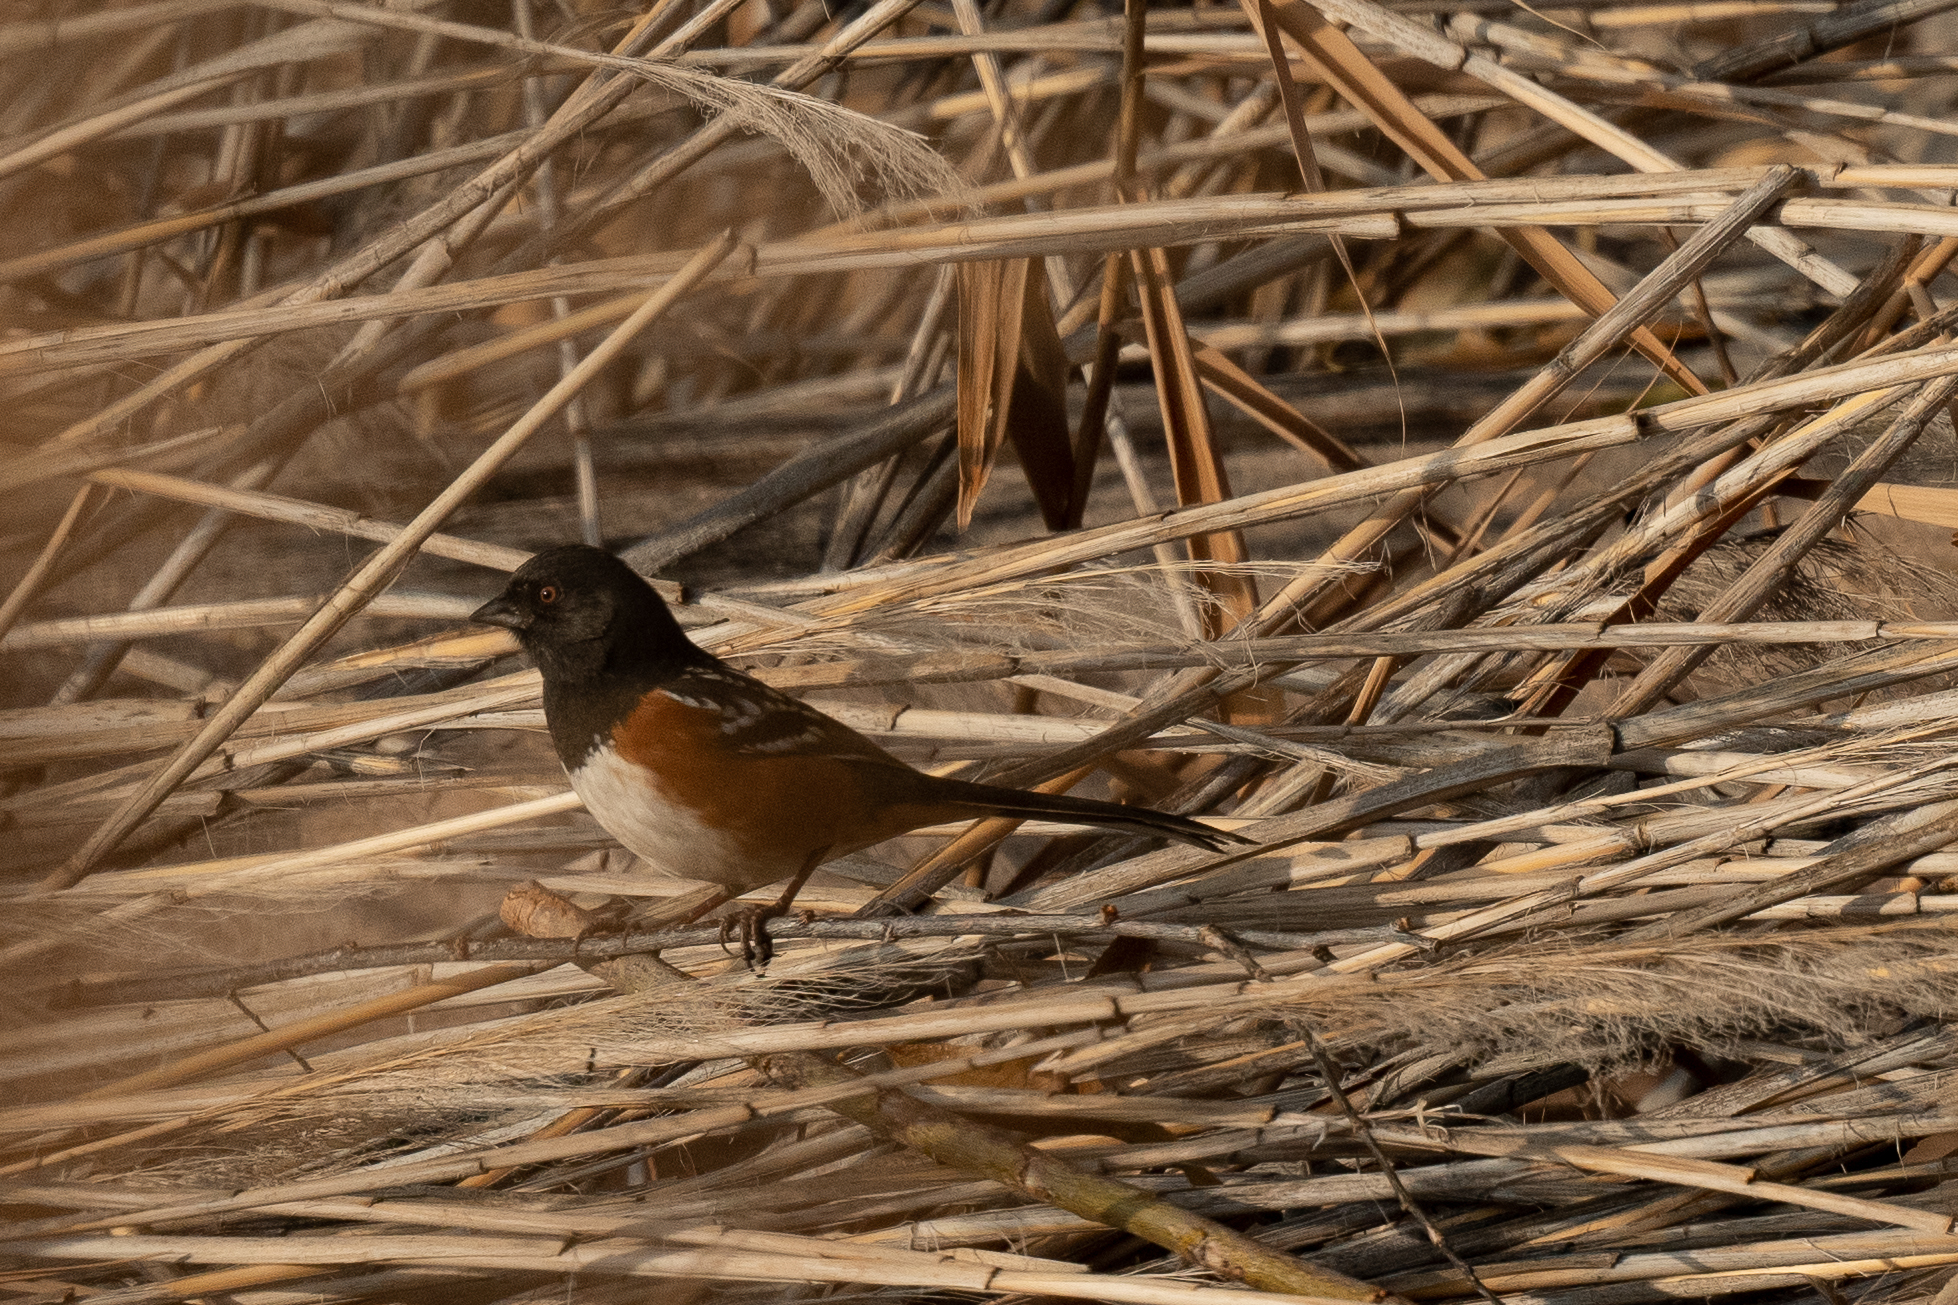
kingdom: Animalia
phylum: Chordata
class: Aves
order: Passeriformes
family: Passerellidae
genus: Pipilo
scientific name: Pipilo maculatus
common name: Spotted towhee
